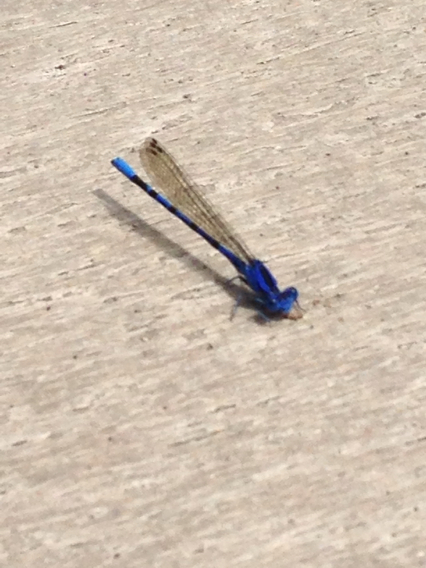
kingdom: Animalia
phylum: Arthropoda
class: Insecta
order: Odonata
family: Coenagrionidae
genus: Argia
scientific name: Argia vivida
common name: Vivid dancer
